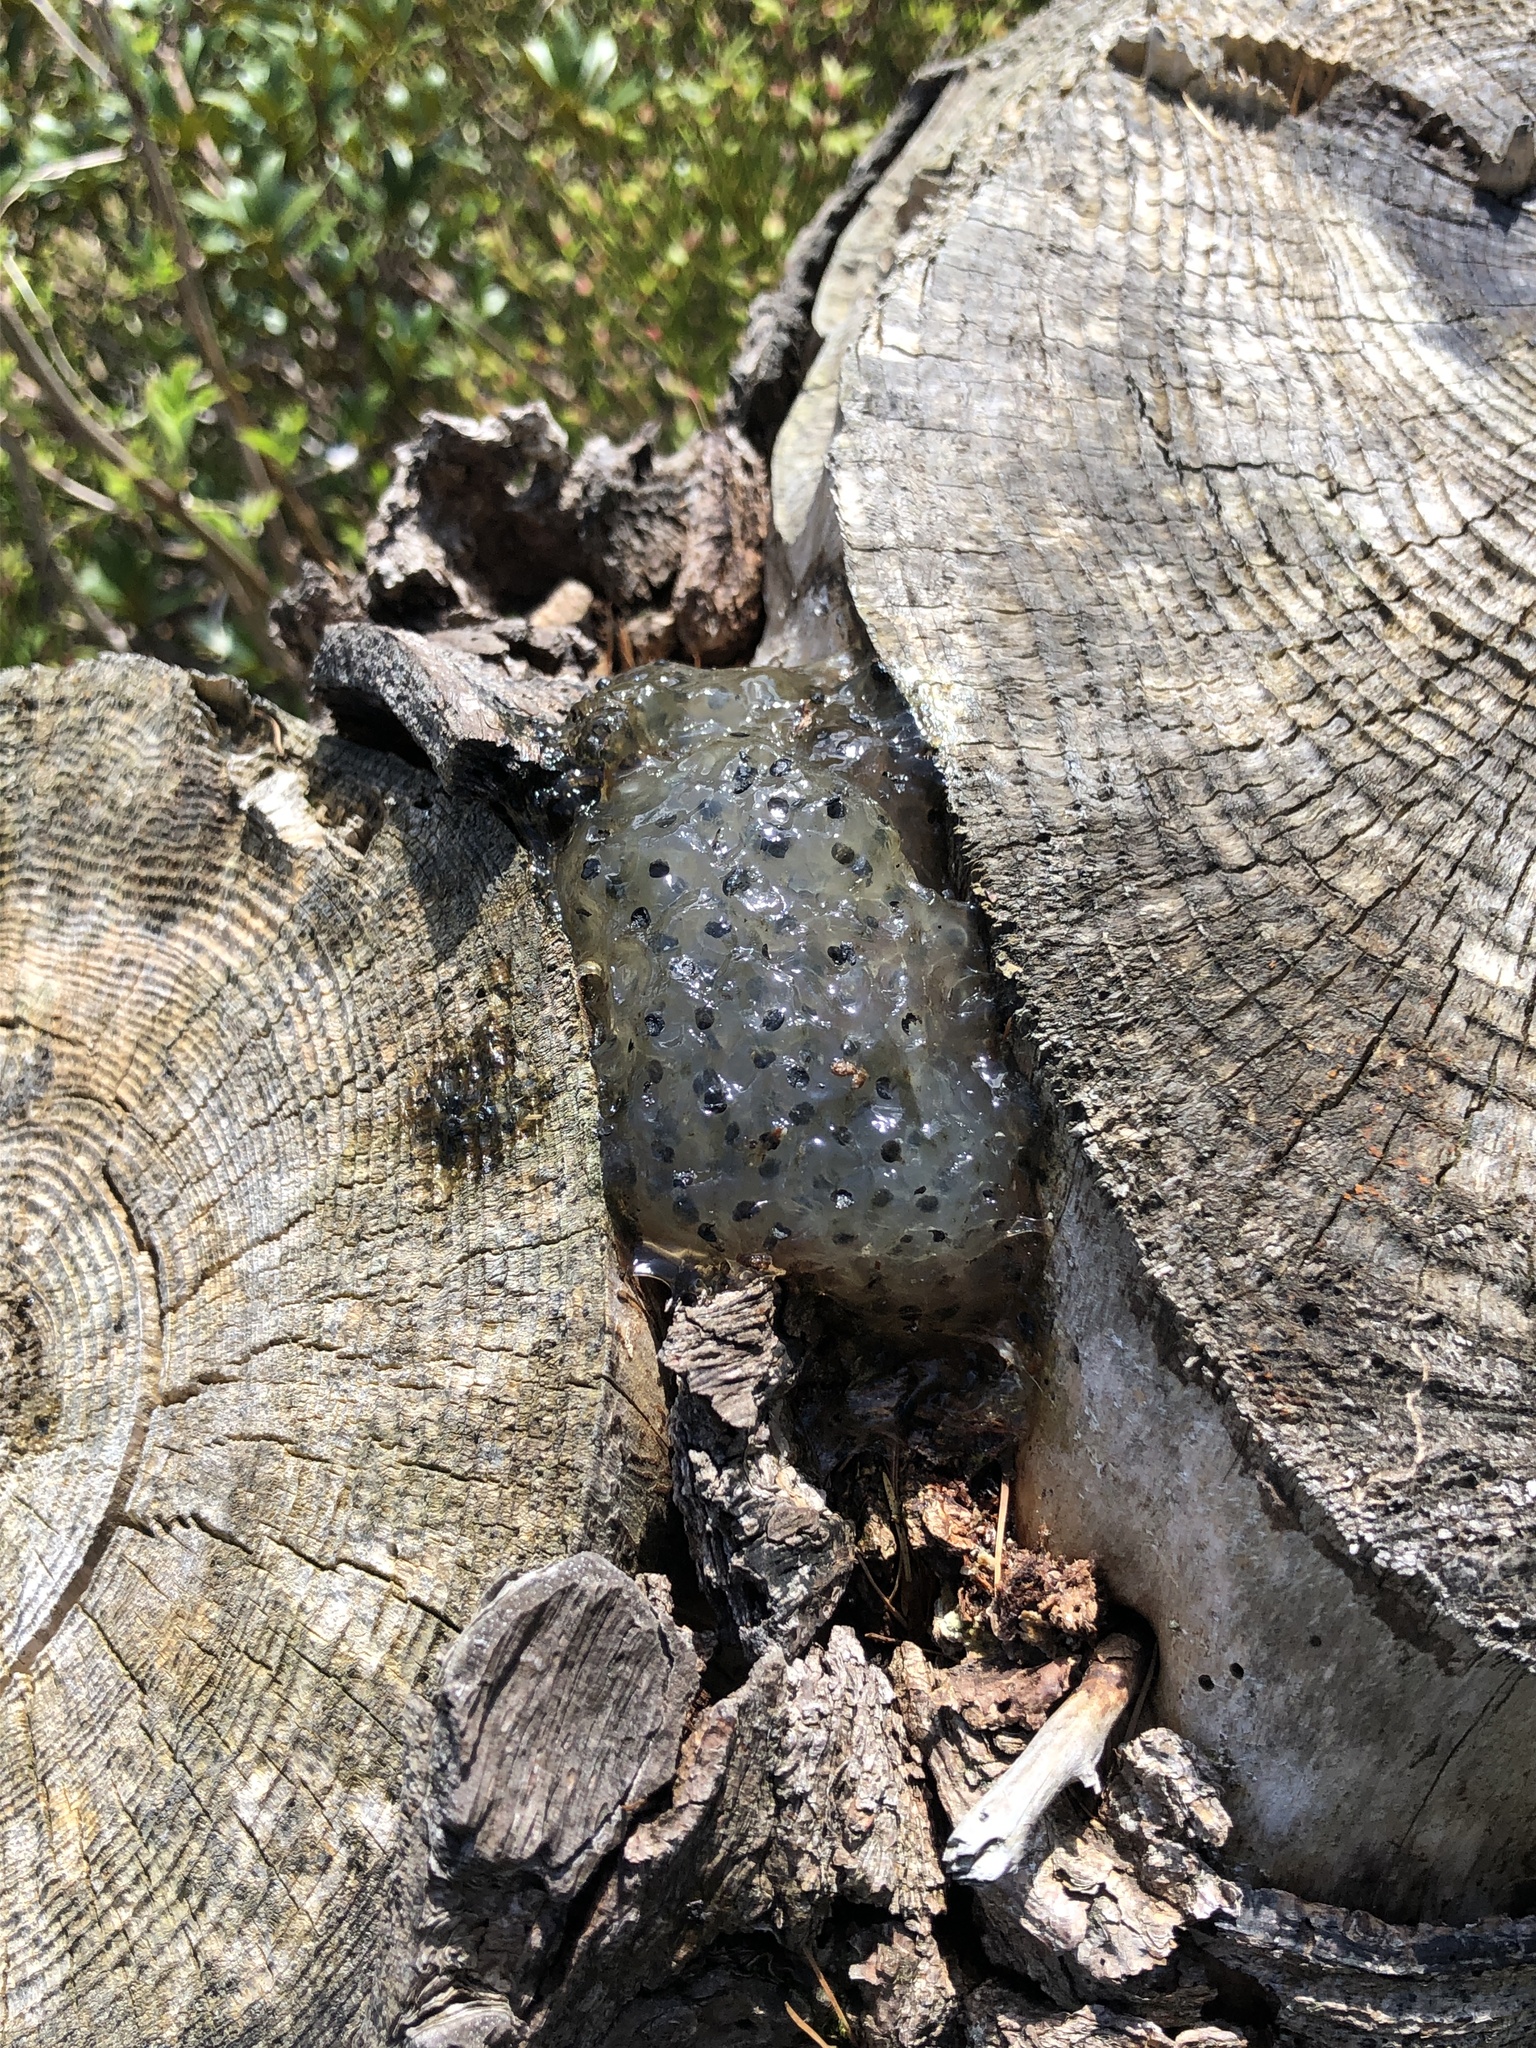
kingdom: Animalia
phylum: Chordata
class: Amphibia
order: Anura
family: Ranidae
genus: Rana
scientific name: Rana temporaria
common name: Common frog
